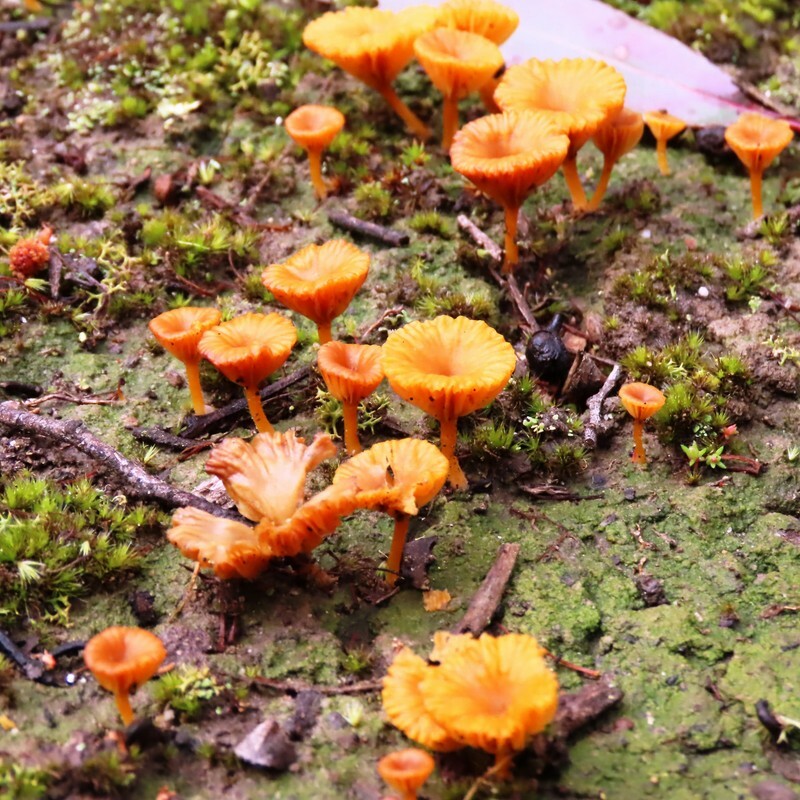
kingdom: Fungi
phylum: Basidiomycota
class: Agaricomycetes
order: Agaricales
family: Hygrophoraceae
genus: Lichenomphalia
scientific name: Lichenomphalia chromacea
